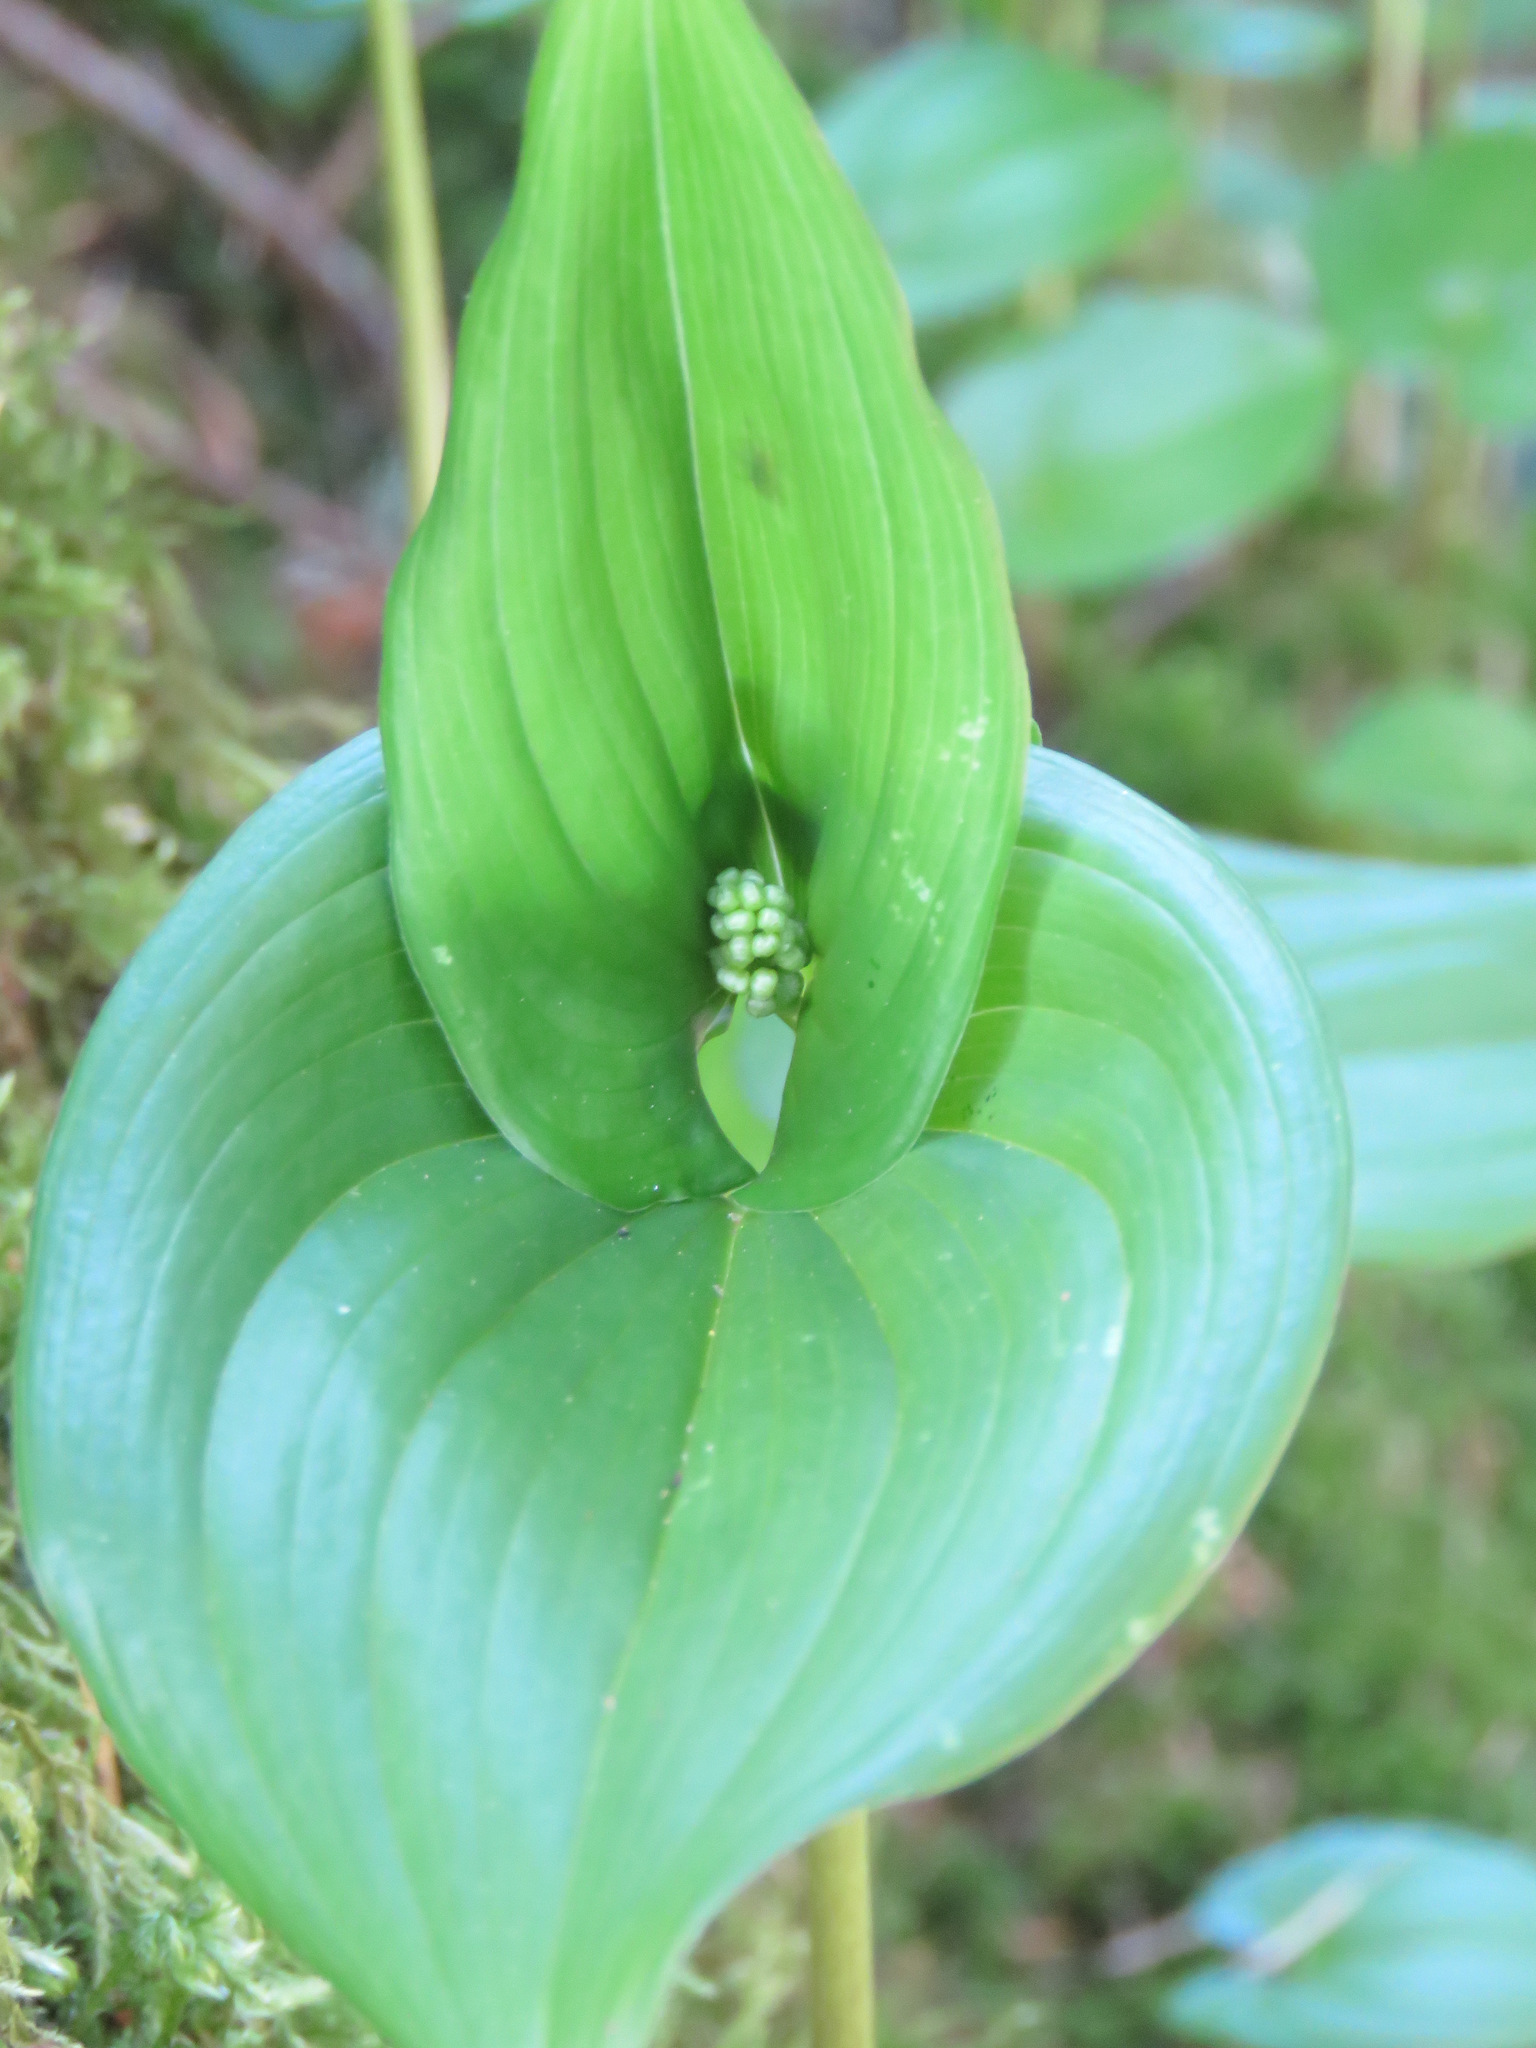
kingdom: Plantae
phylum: Tracheophyta
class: Liliopsida
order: Asparagales
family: Asparagaceae
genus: Maianthemum
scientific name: Maianthemum dilatatum
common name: False lily-of-the-valley
